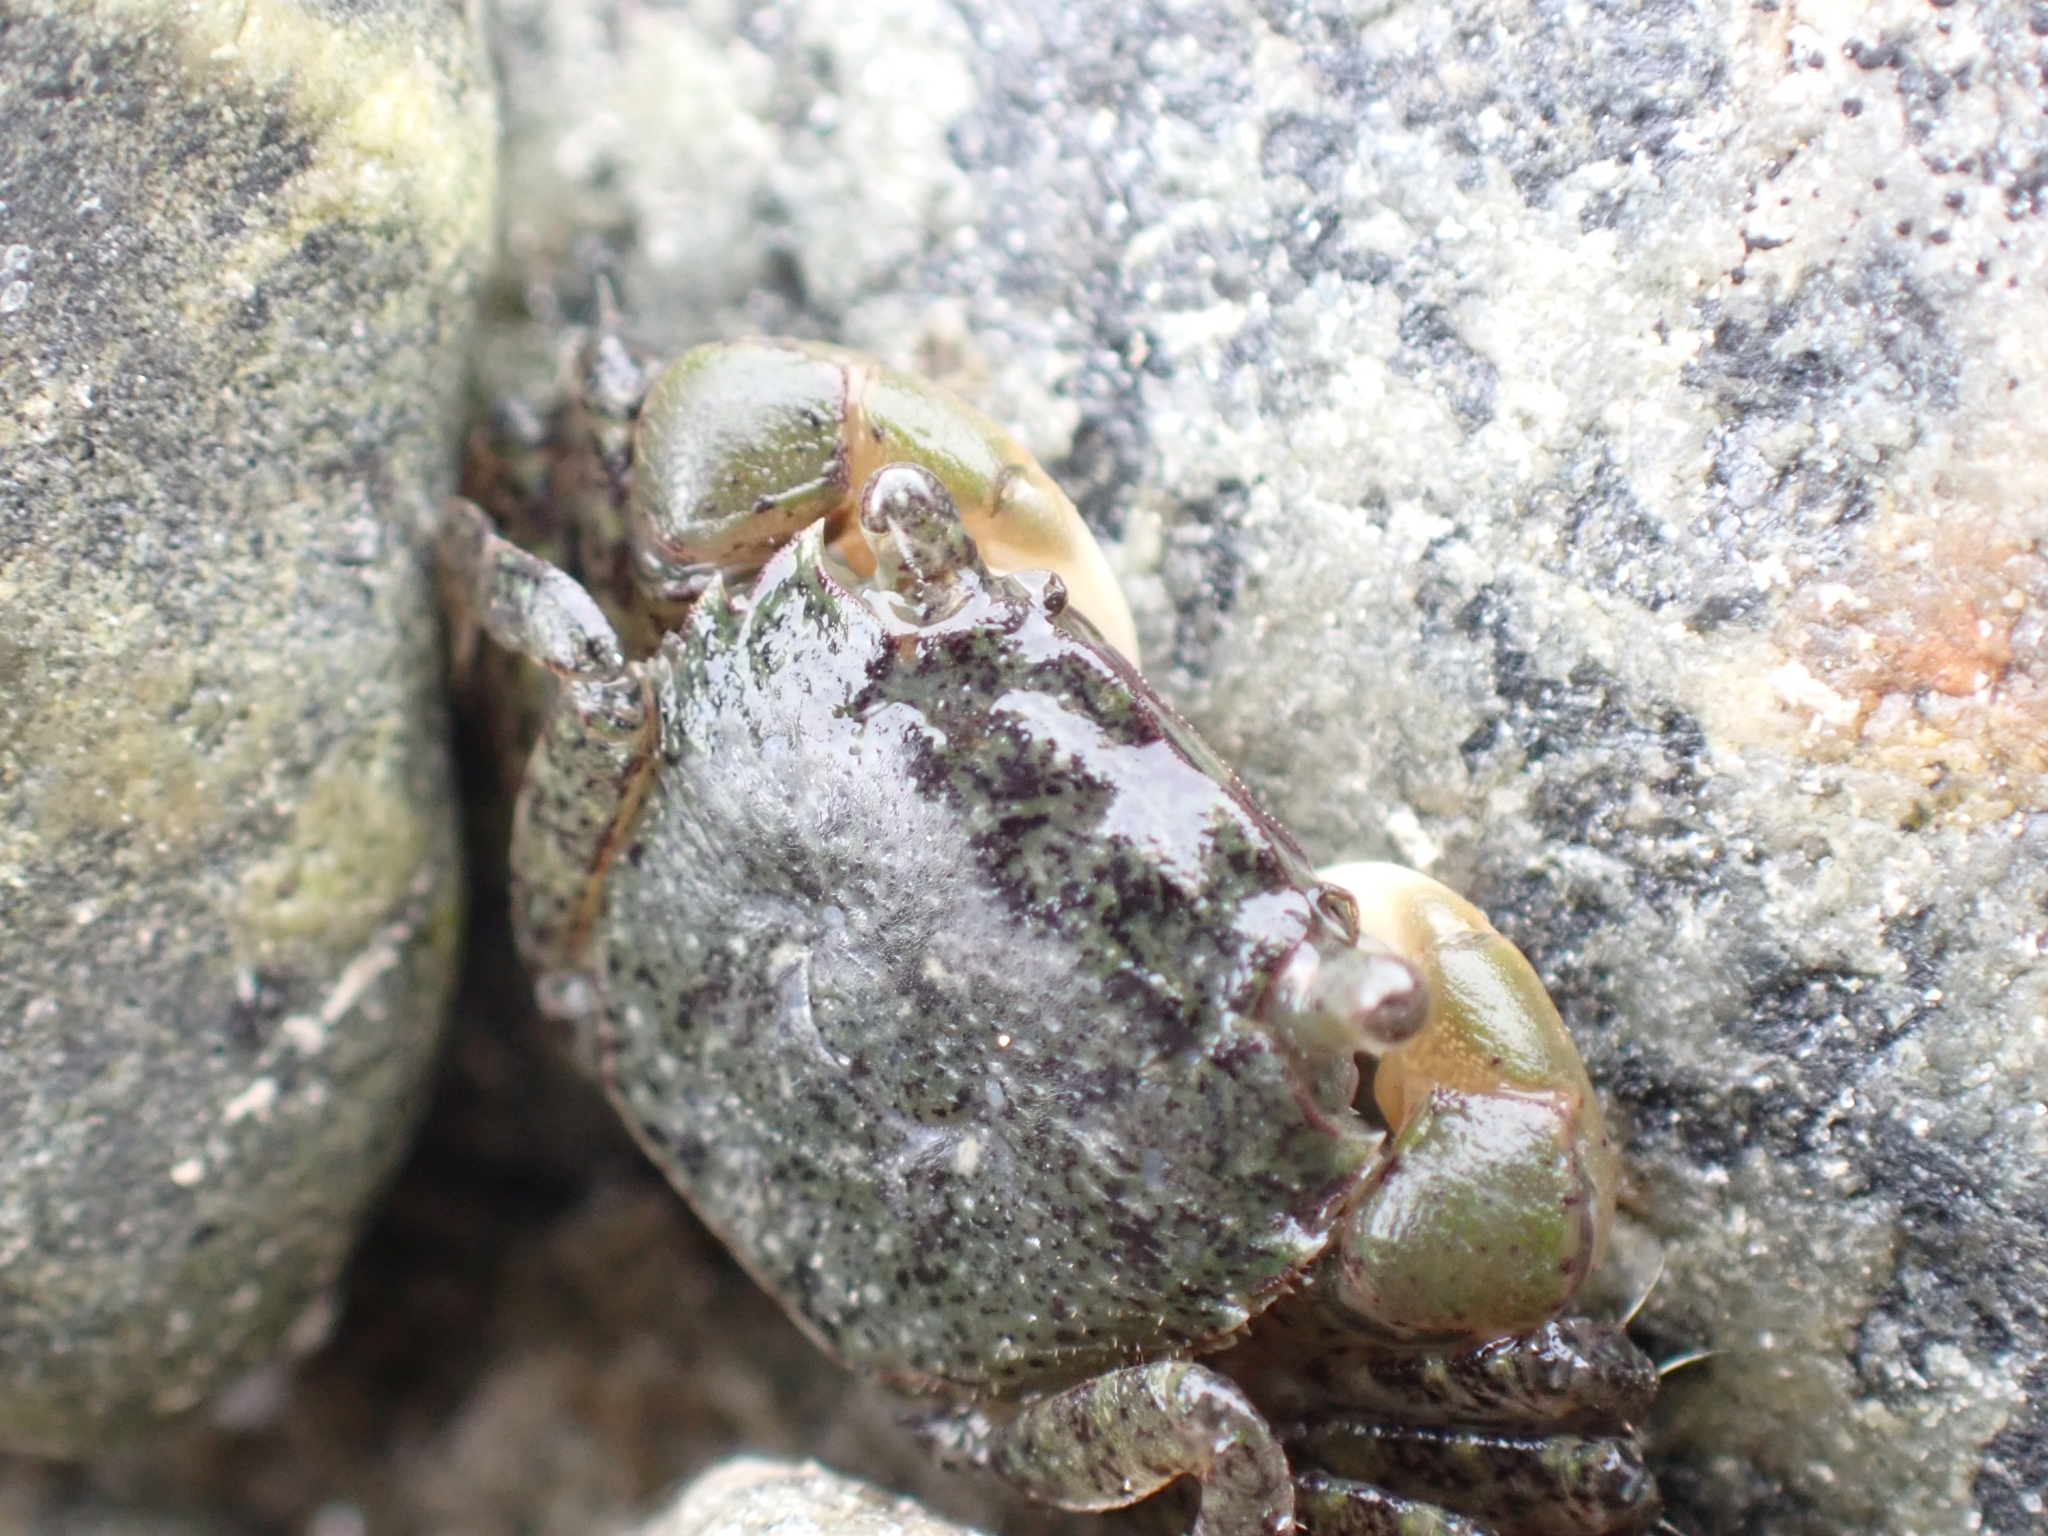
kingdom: Animalia
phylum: Arthropoda
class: Malacostraca
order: Decapoda
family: Varunidae
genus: Hemigrapsus
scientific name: Hemigrapsus oregonensis
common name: Yellow shore crab
